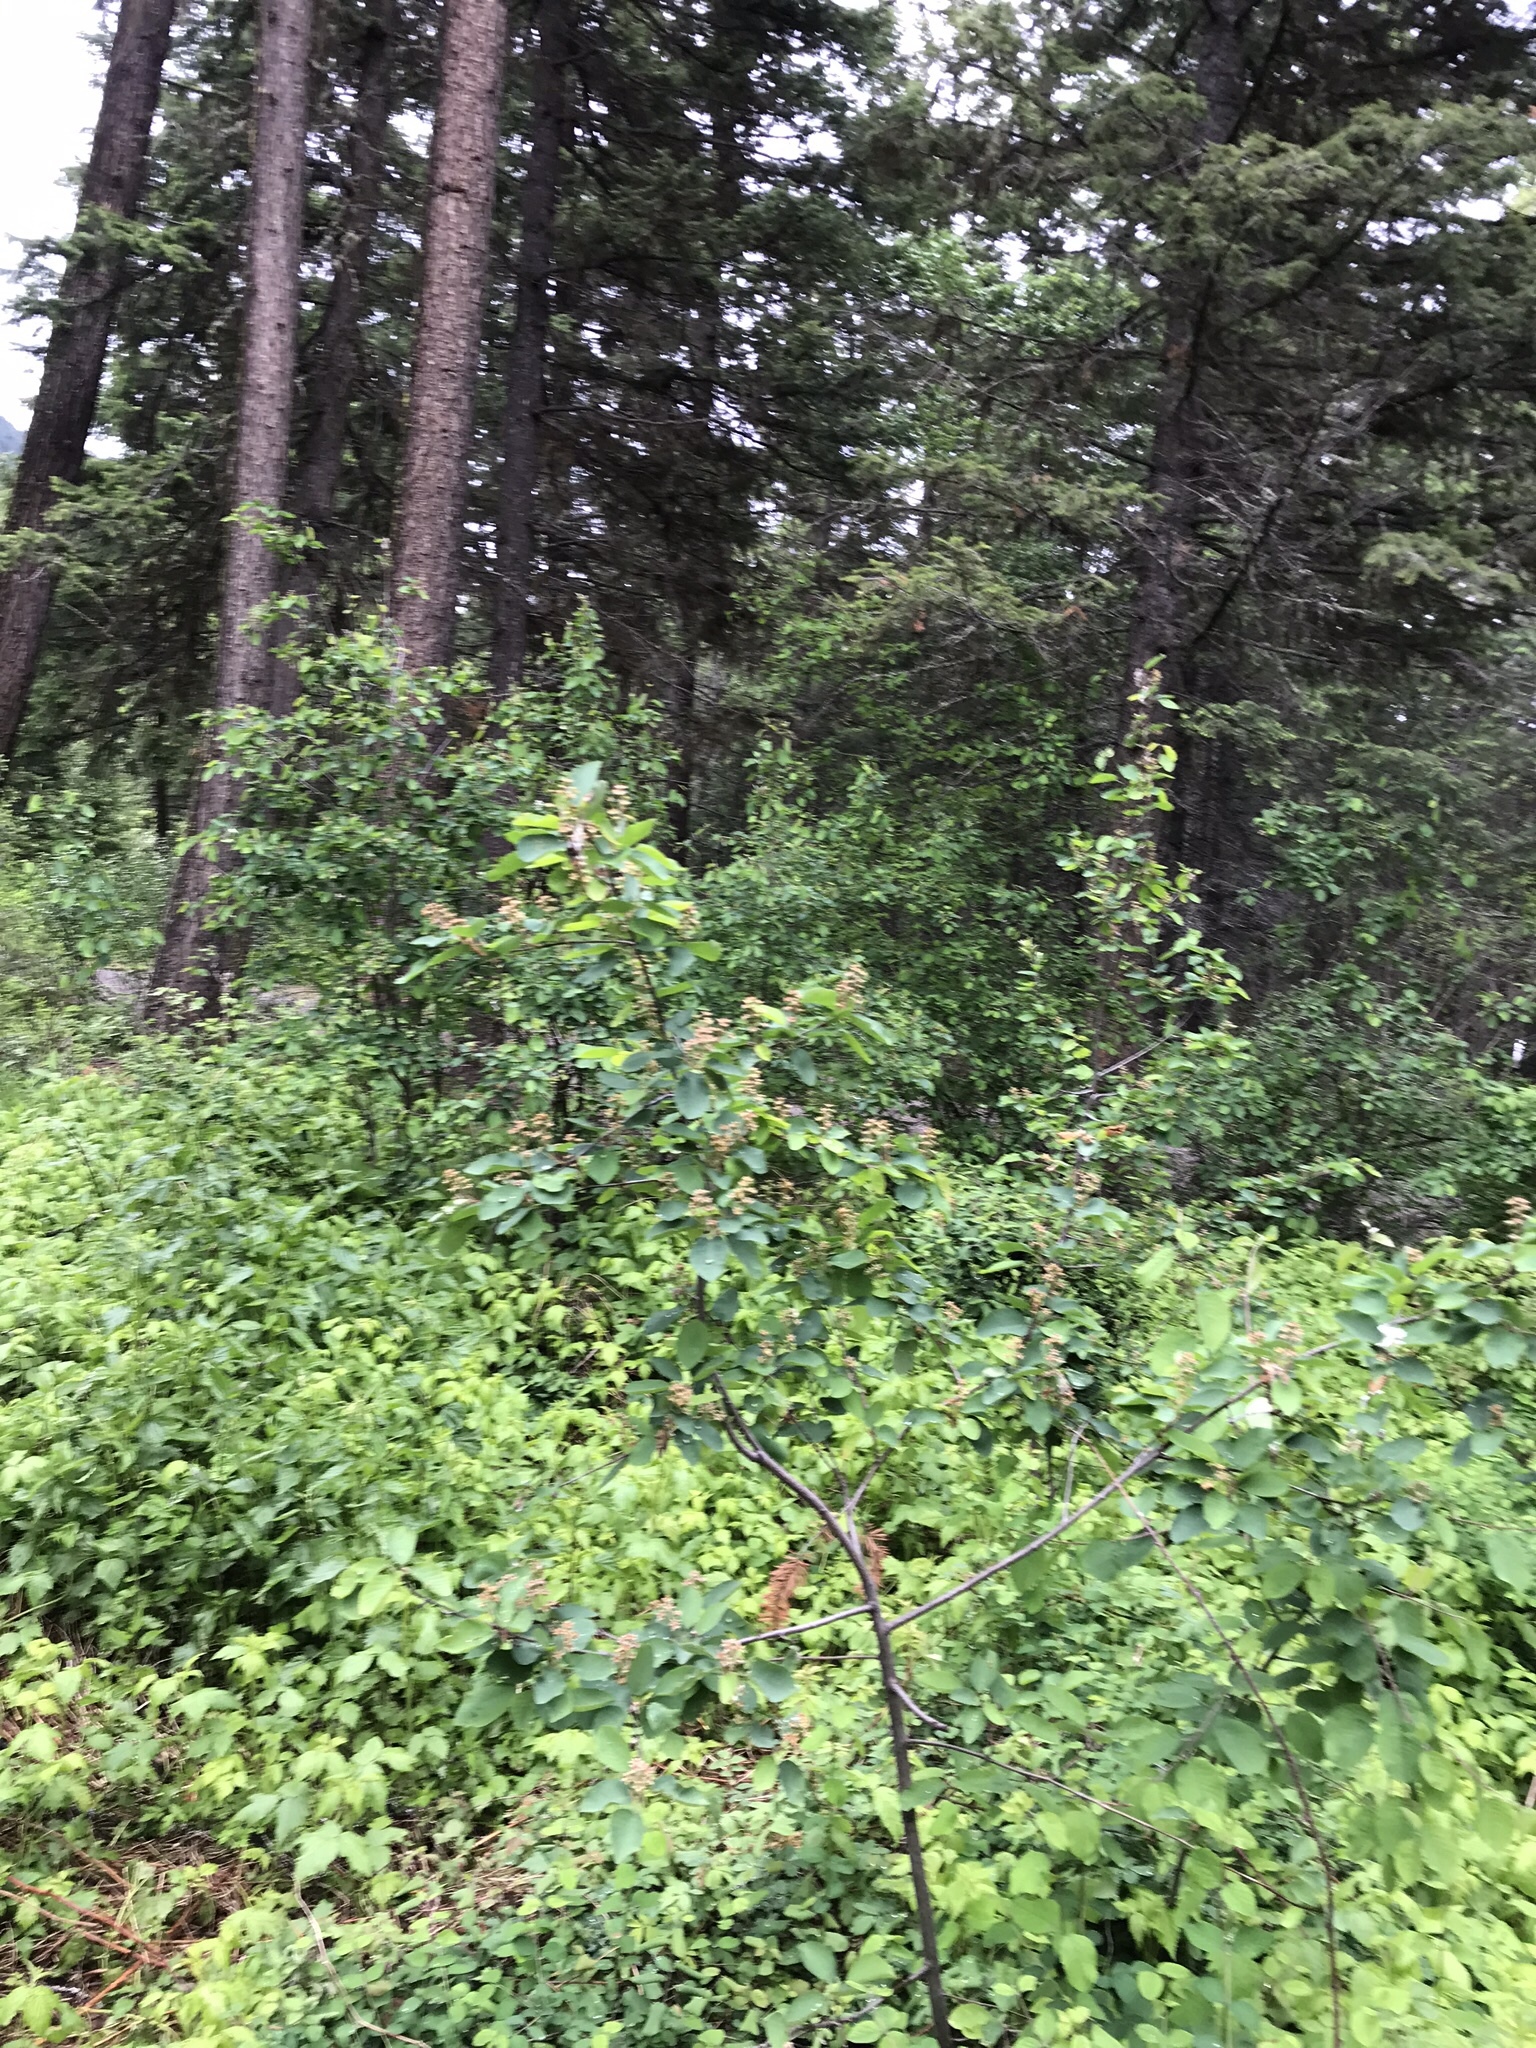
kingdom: Plantae
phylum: Tracheophyta
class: Magnoliopsida
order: Rosales
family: Rosaceae
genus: Amelanchier
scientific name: Amelanchier alnifolia
